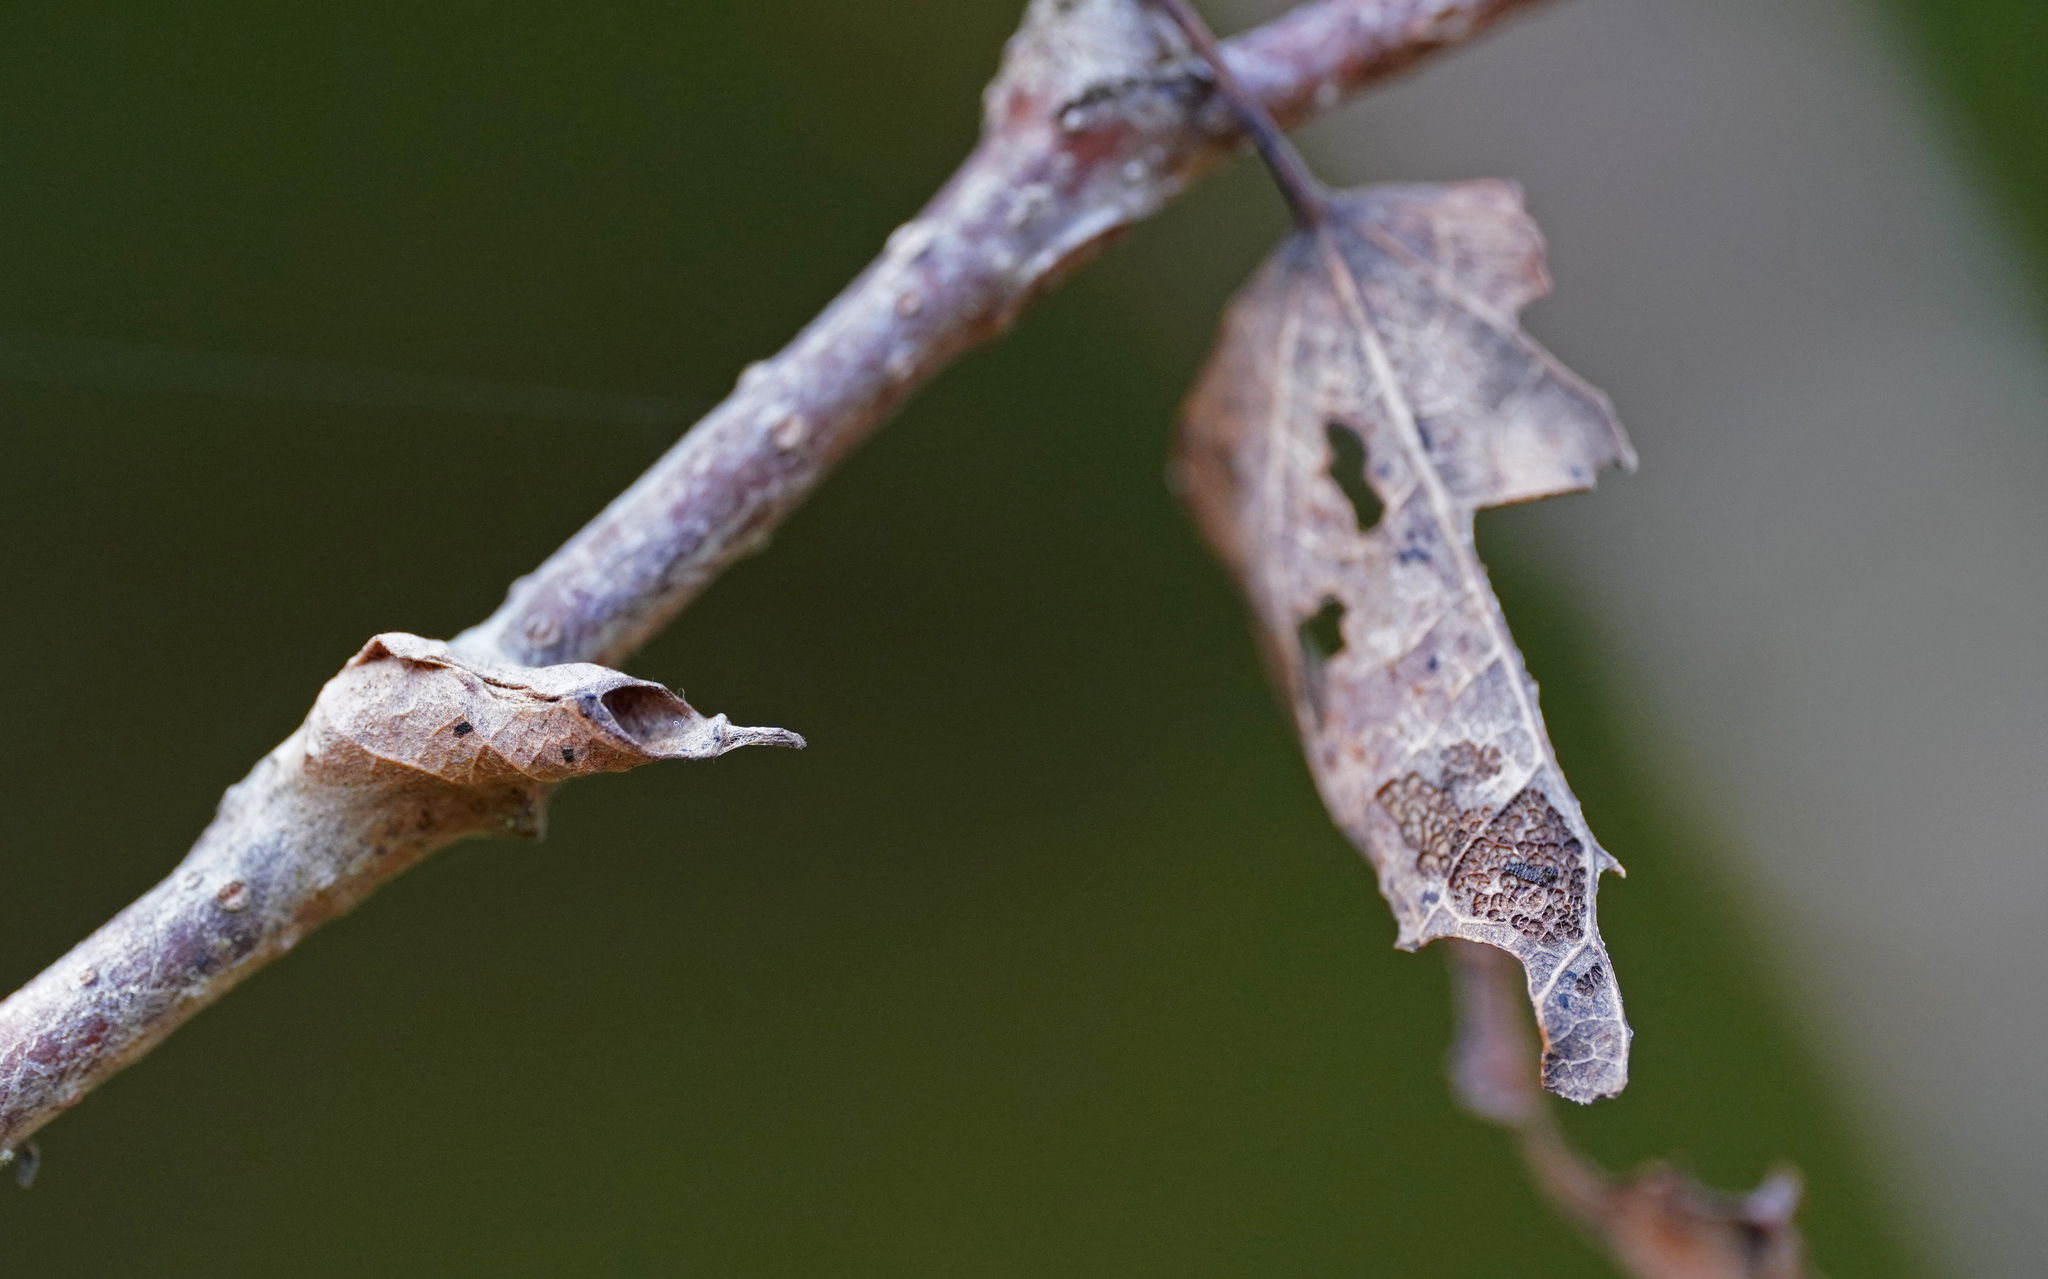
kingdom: Animalia
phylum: Arthropoda
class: Insecta
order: Lepidoptera
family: Nymphalidae
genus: Limenitis
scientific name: Limenitis populi
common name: Poplar admiral
